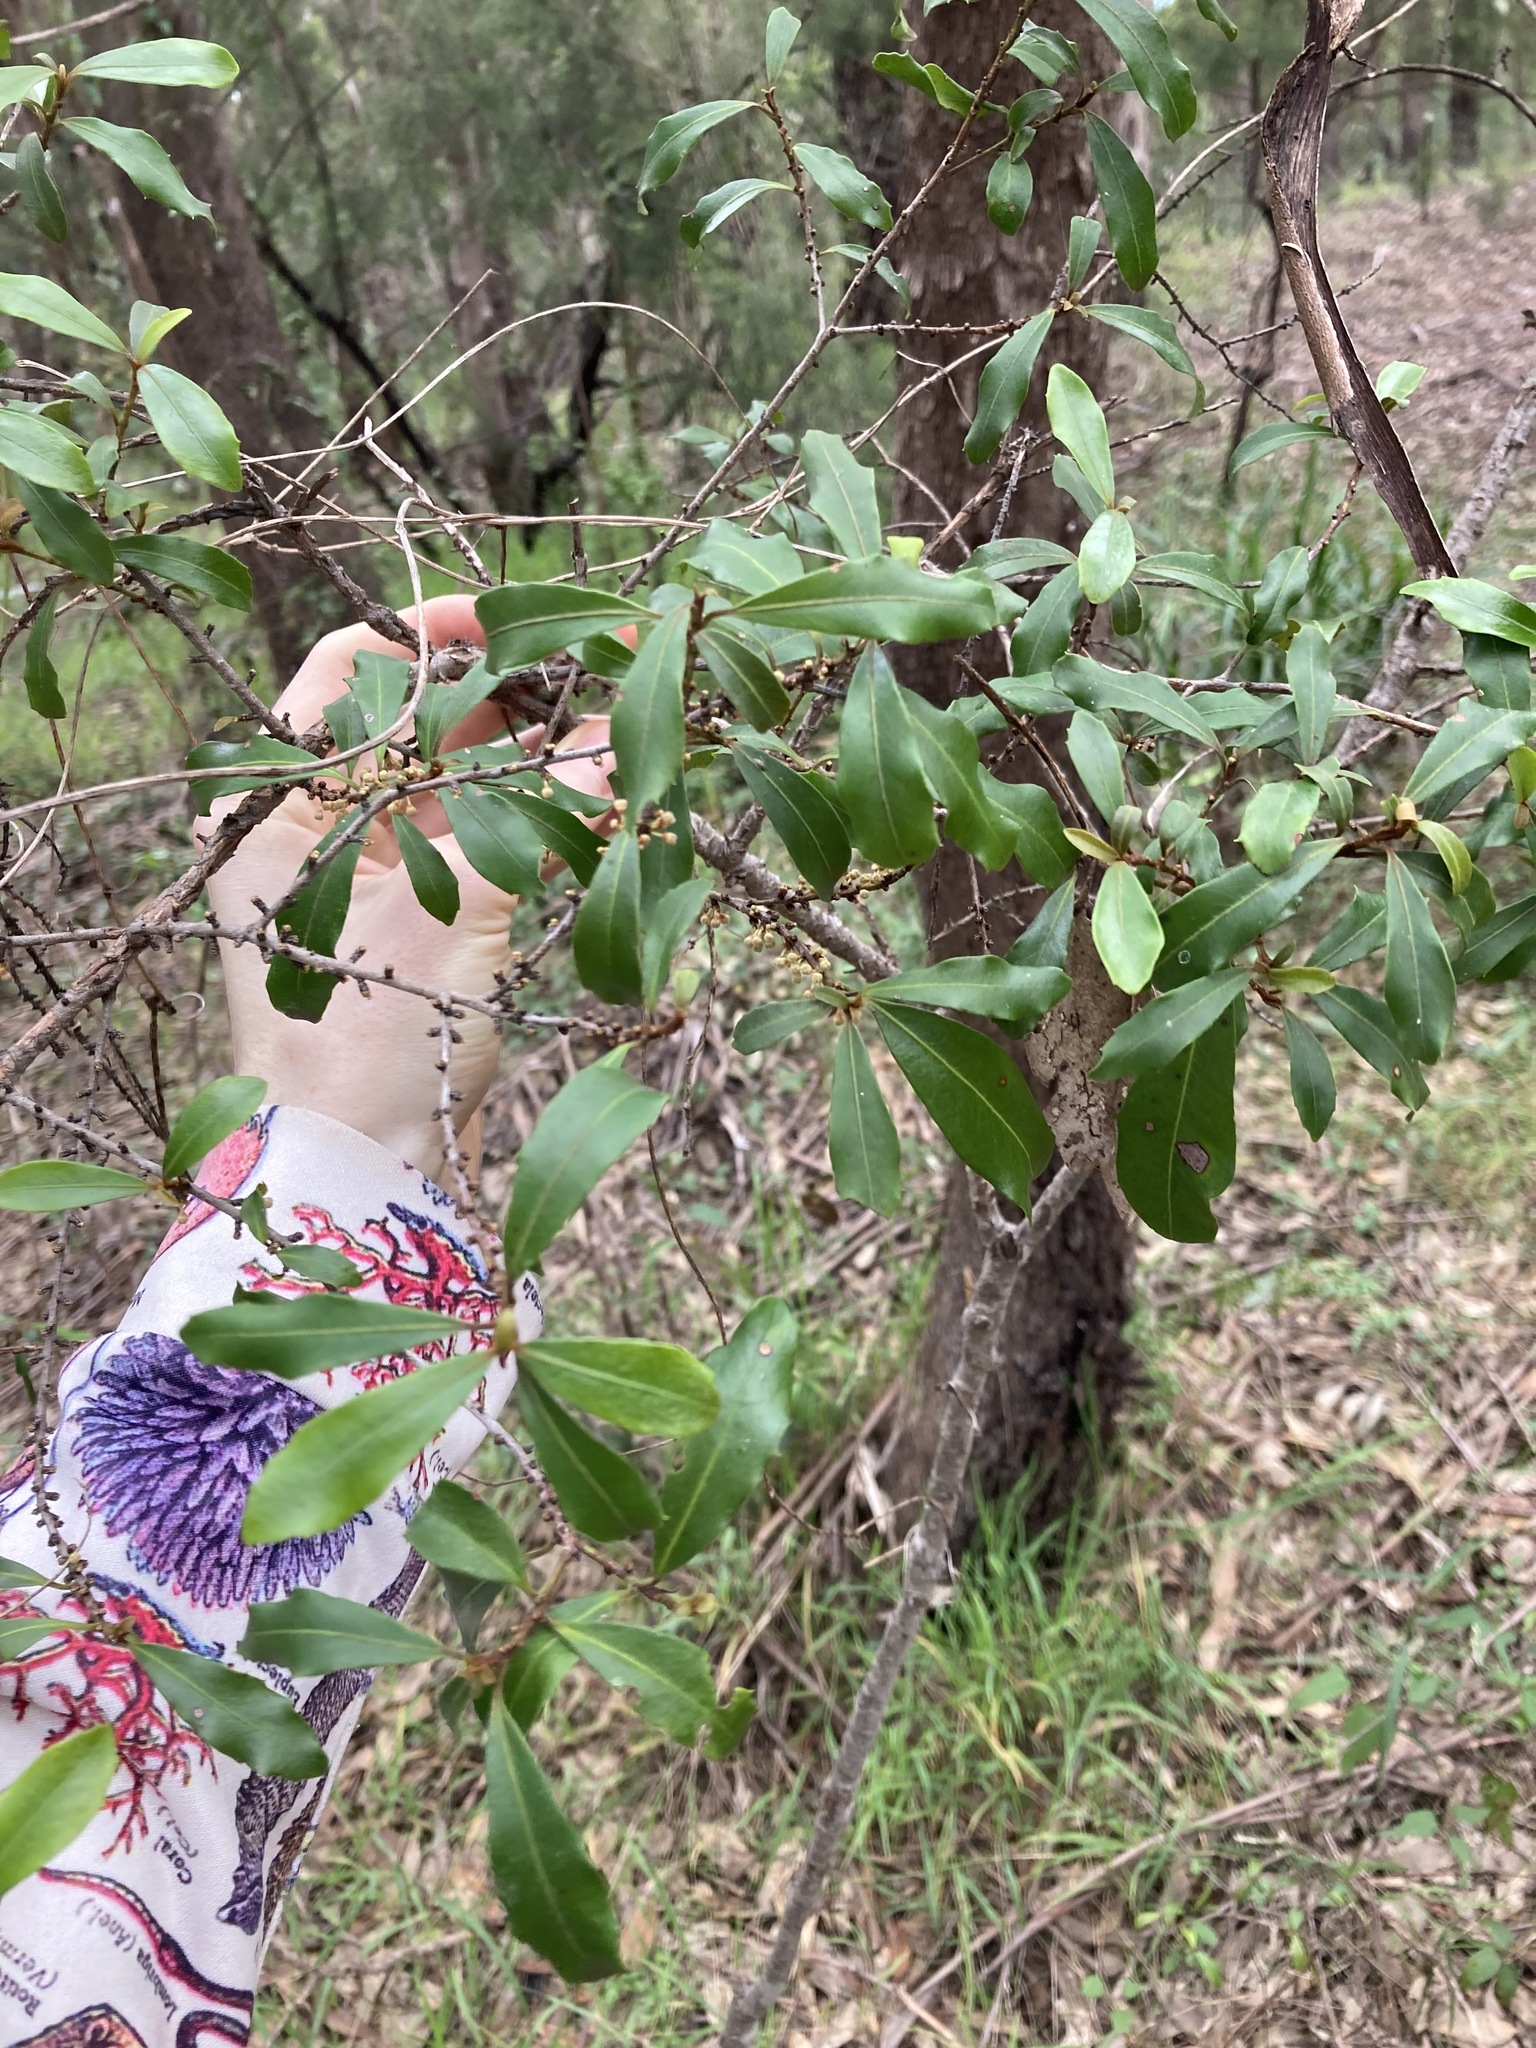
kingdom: Plantae
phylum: Tracheophyta
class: Magnoliopsida
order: Ericales
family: Primulaceae
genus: Myrsine
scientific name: Myrsine variabilis
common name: Brush muttonwood
